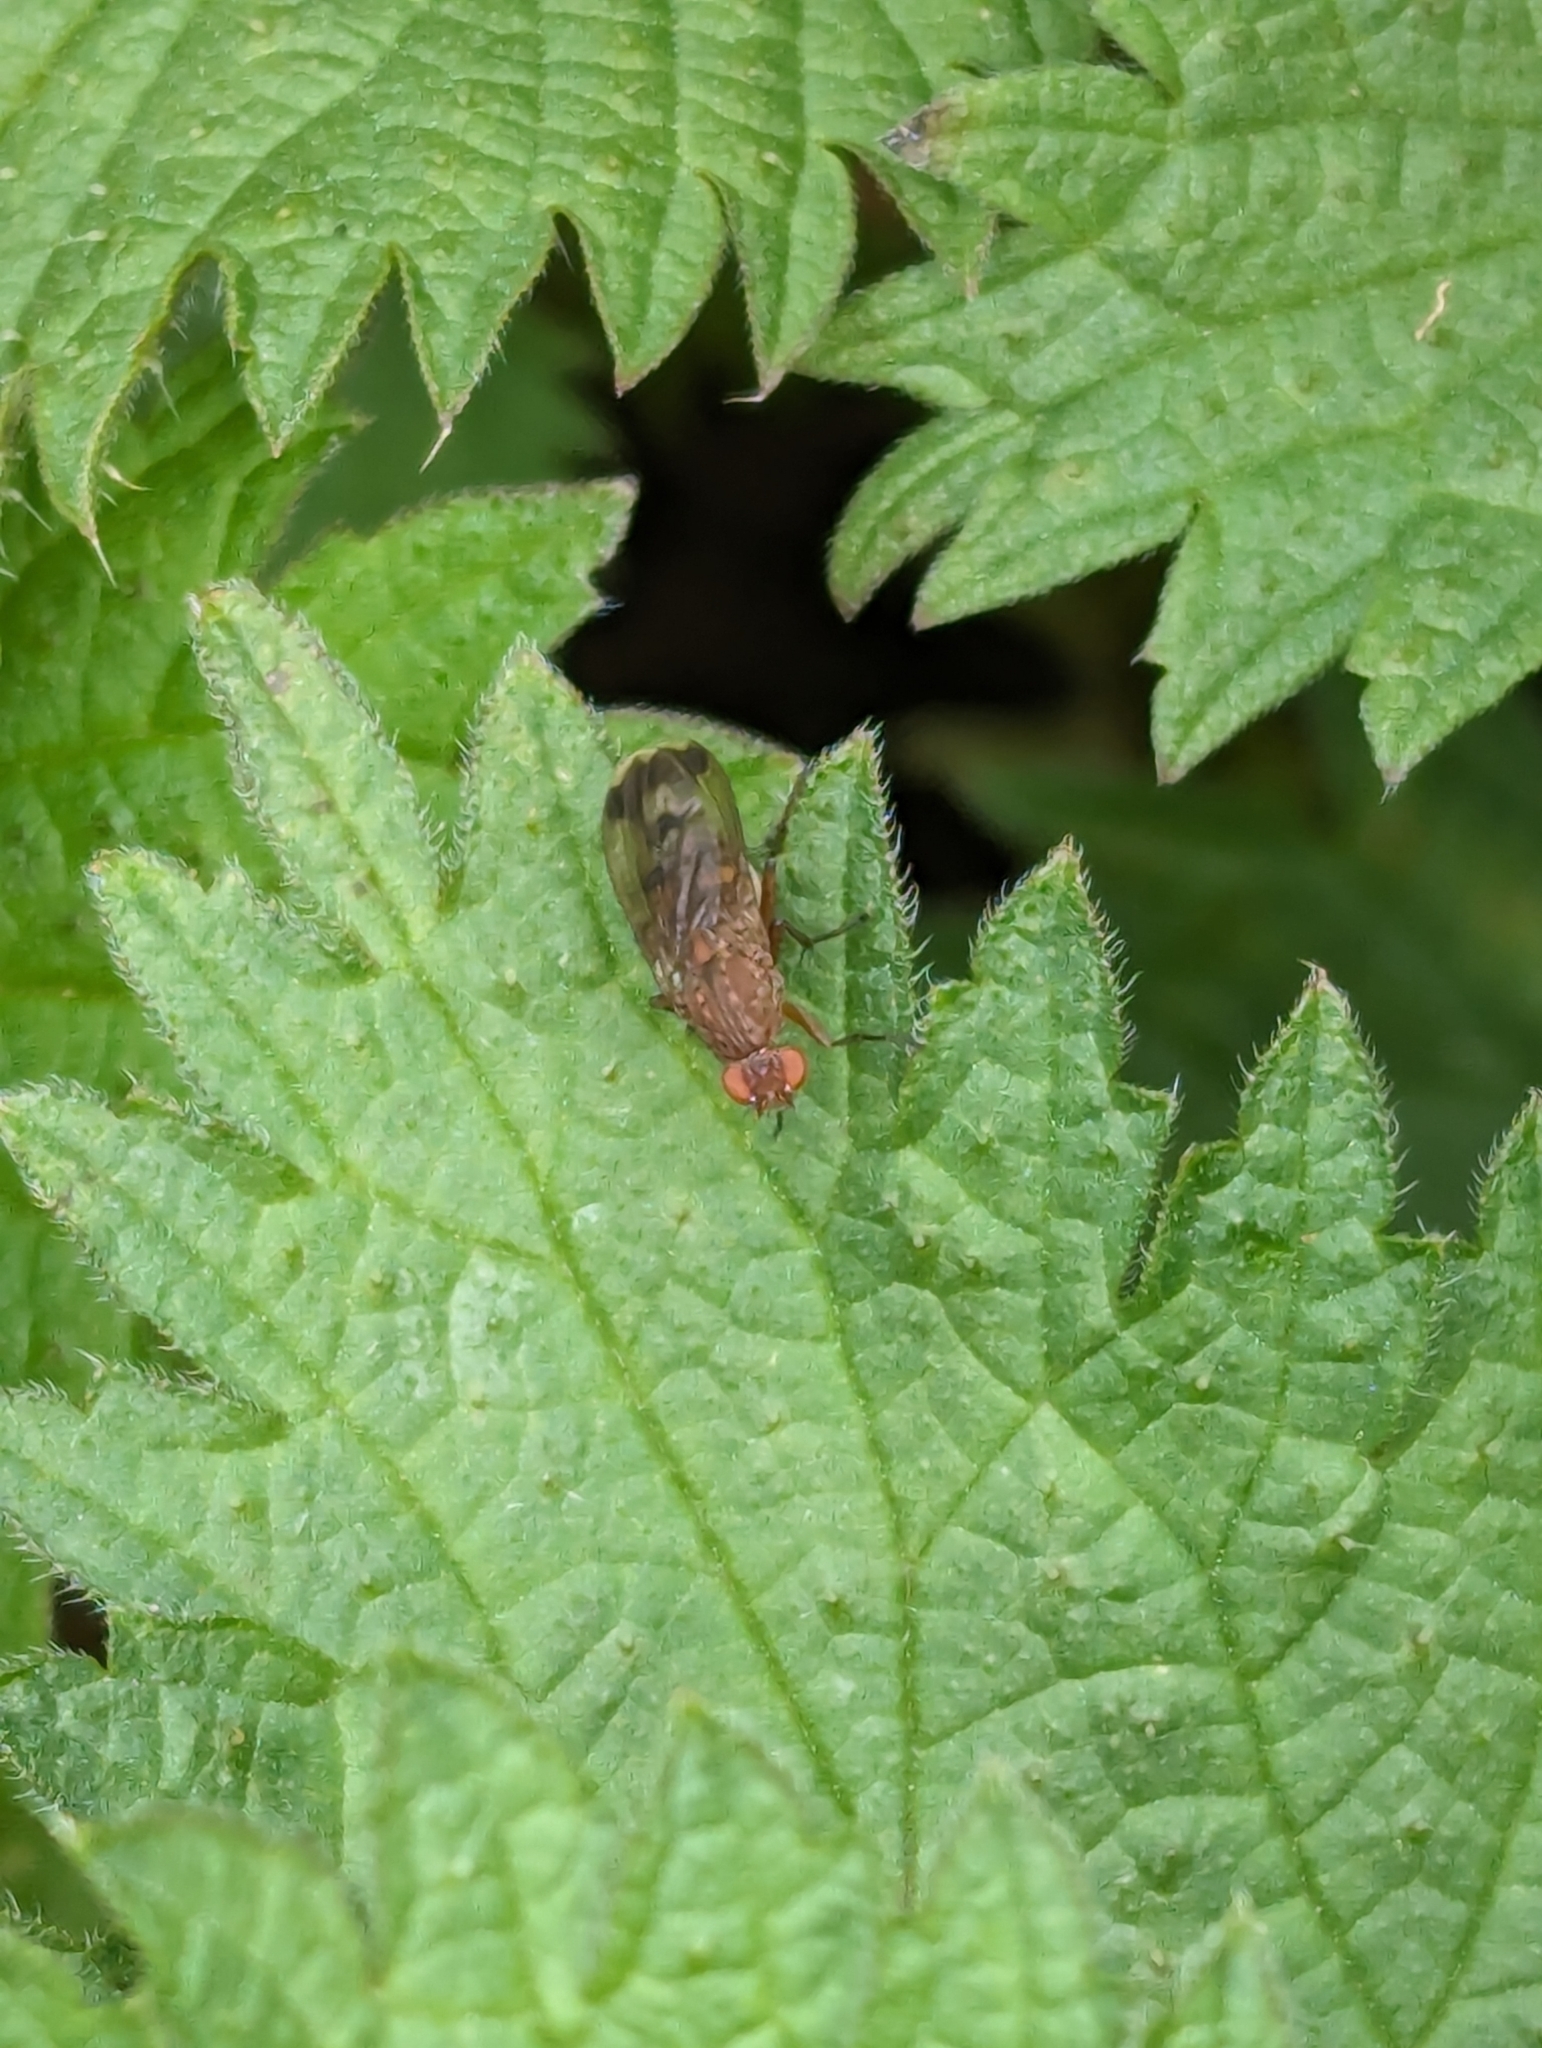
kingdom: Animalia
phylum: Arthropoda
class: Insecta
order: Diptera
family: Heleomyzidae
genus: Suillia
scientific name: Suillia variegata
